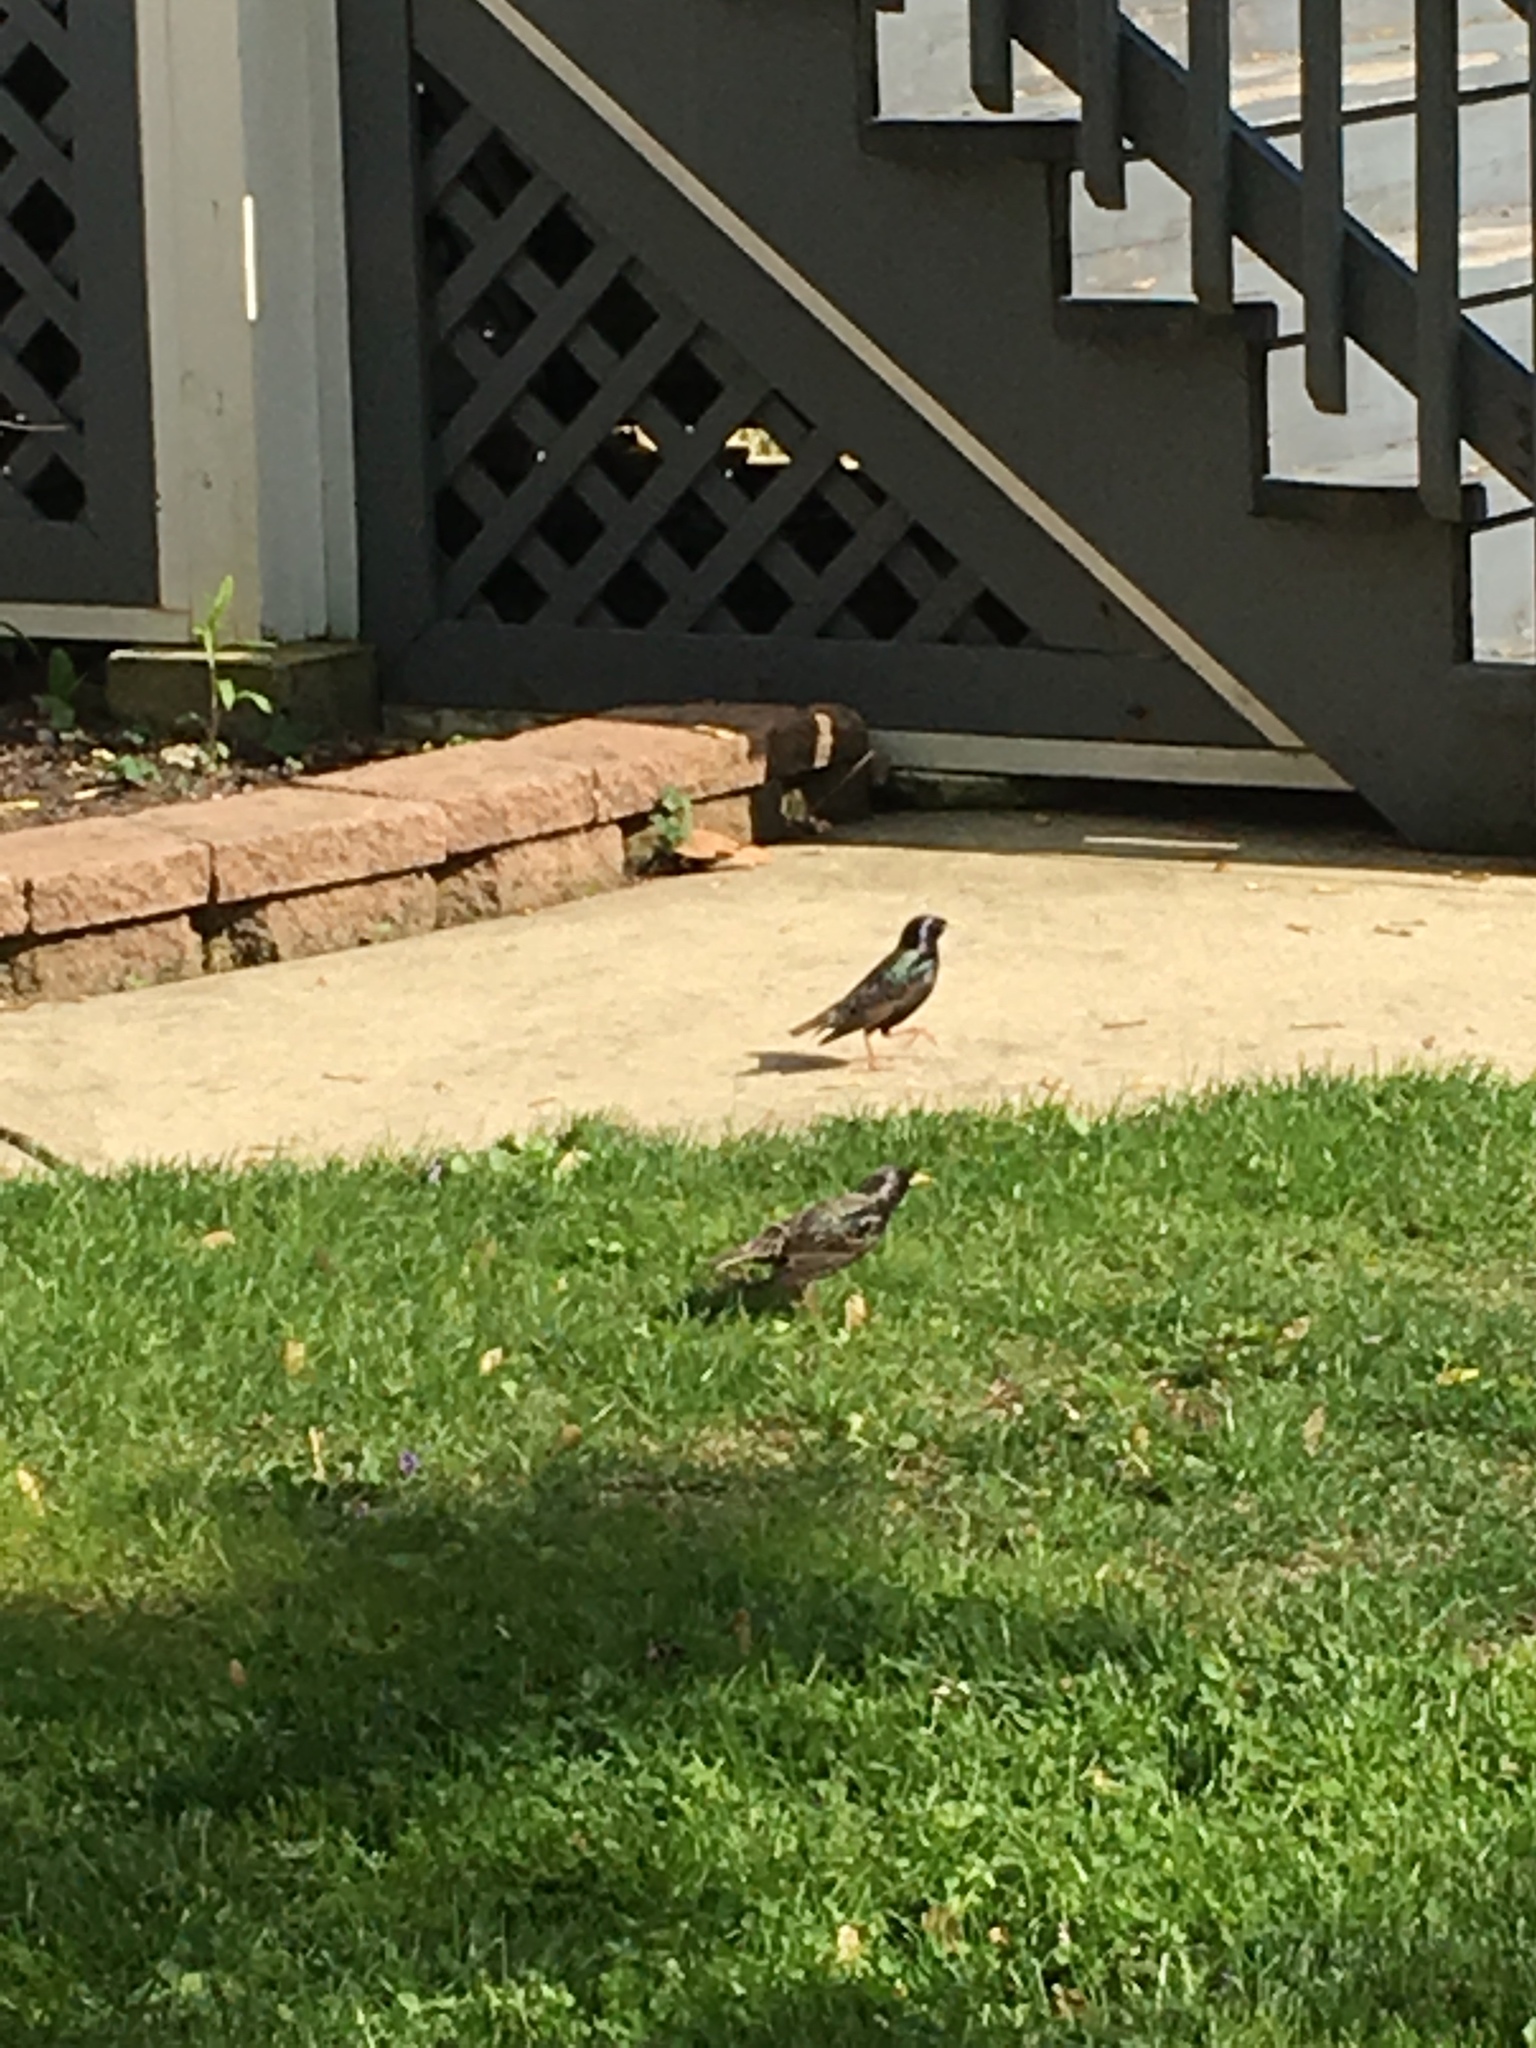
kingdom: Animalia
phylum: Chordata
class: Aves
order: Passeriformes
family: Sturnidae
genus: Sturnus
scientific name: Sturnus vulgaris
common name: Common starling
